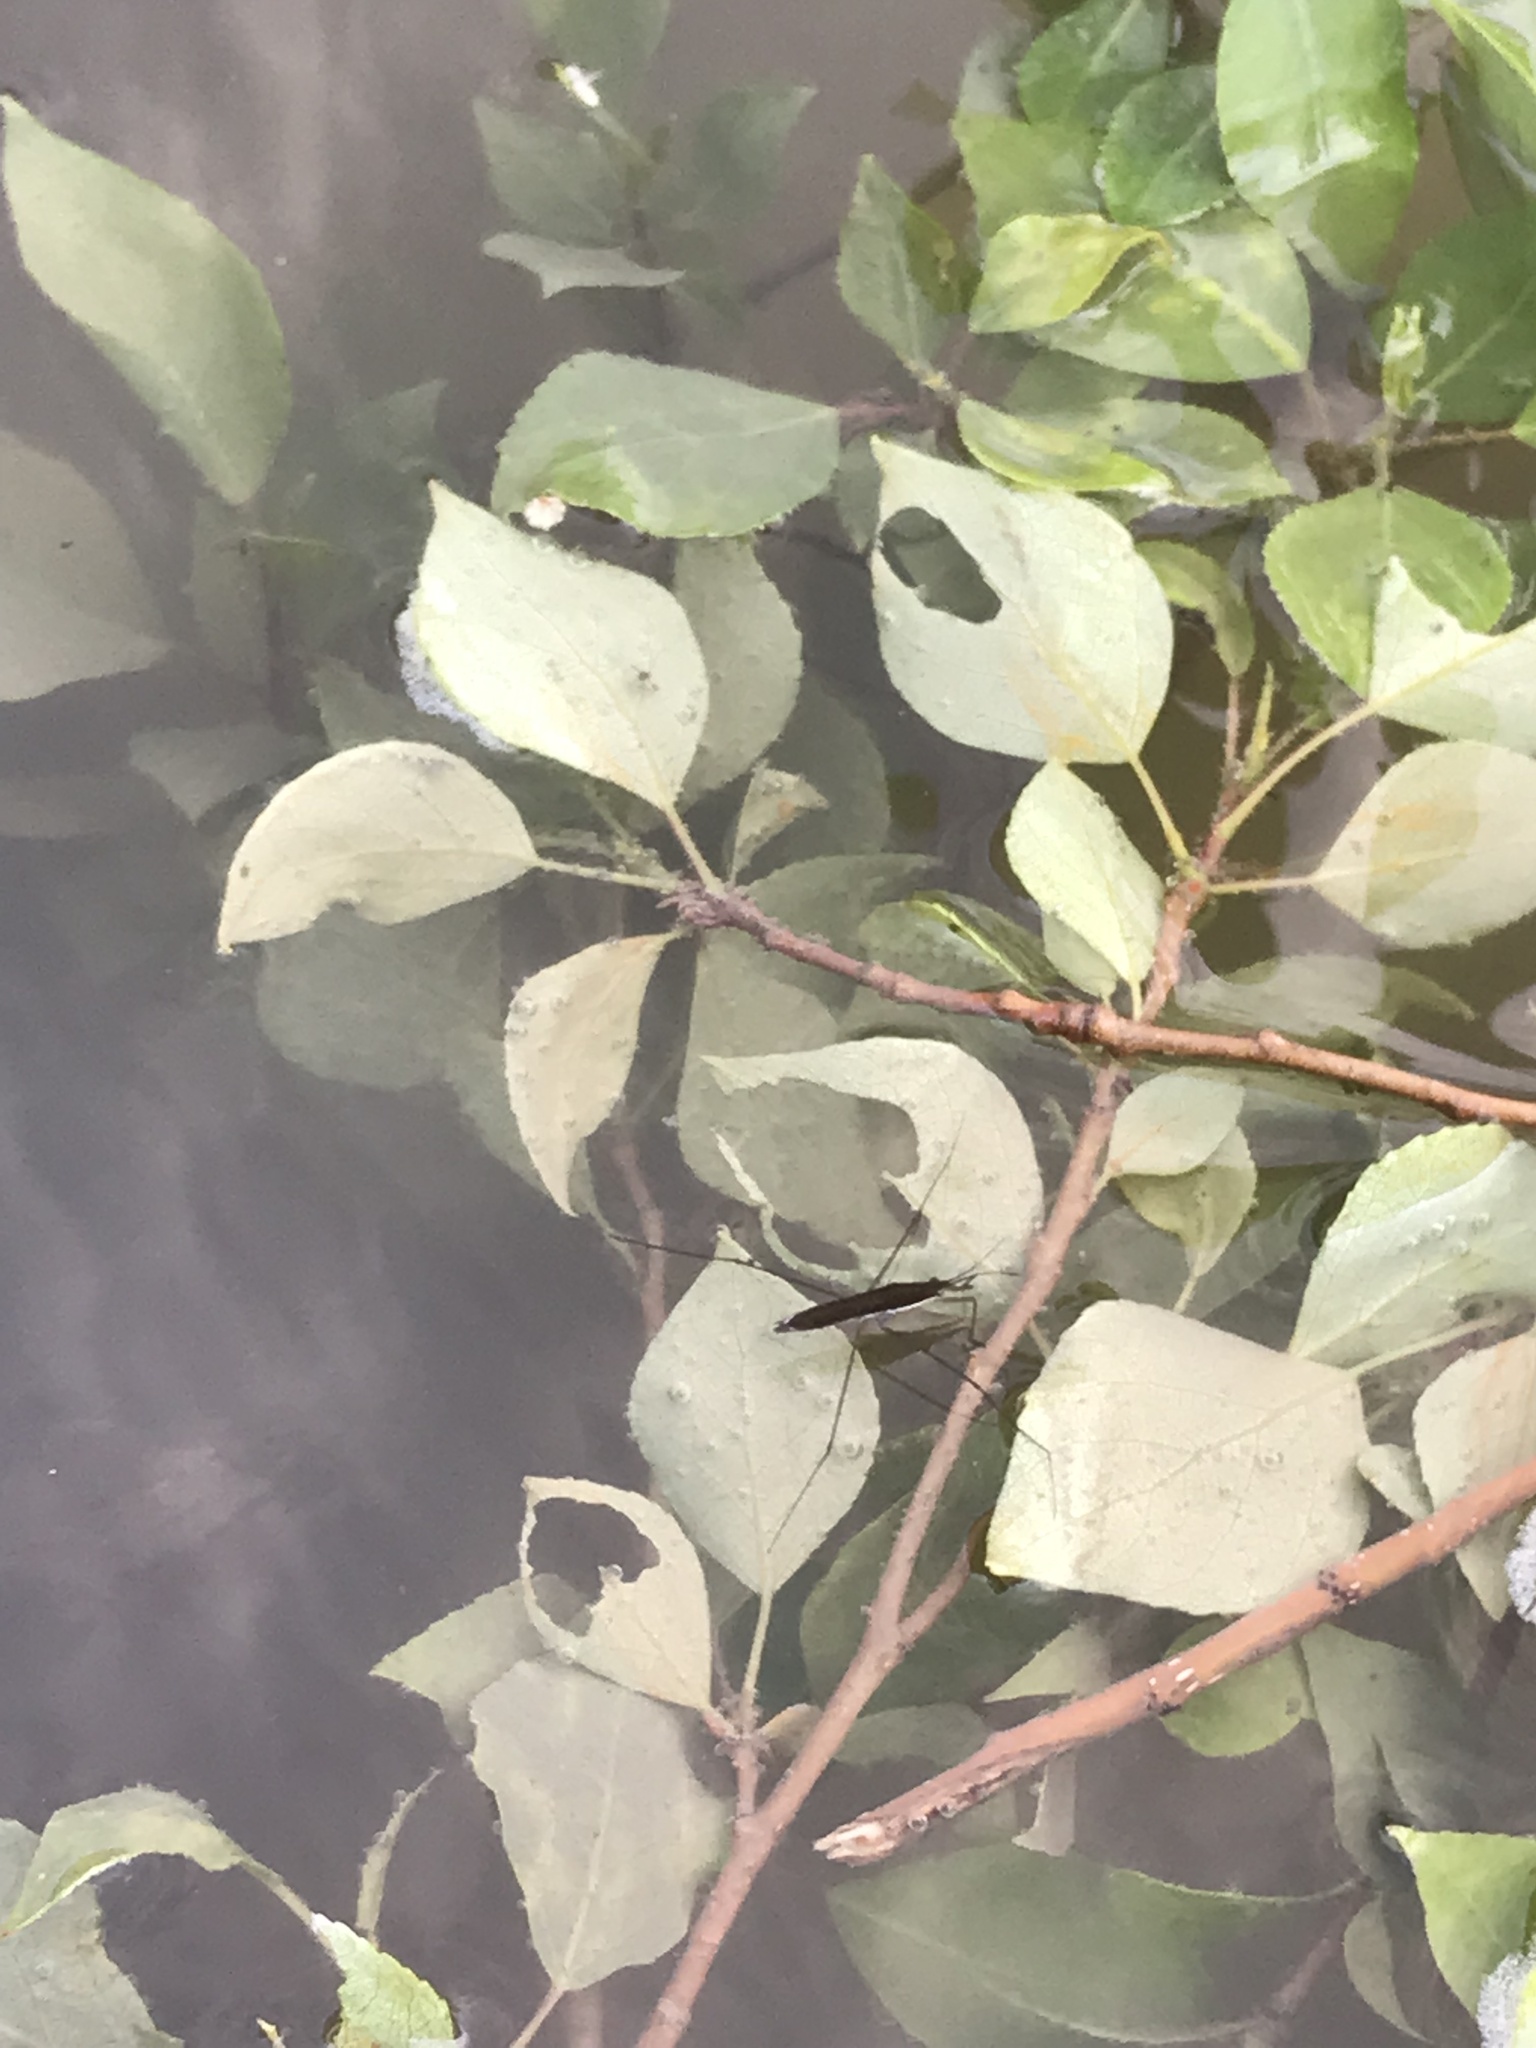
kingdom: Animalia
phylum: Arthropoda
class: Insecta
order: Hemiptera
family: Gerridae
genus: Limnoporus
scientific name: Limnoporus notabilis
